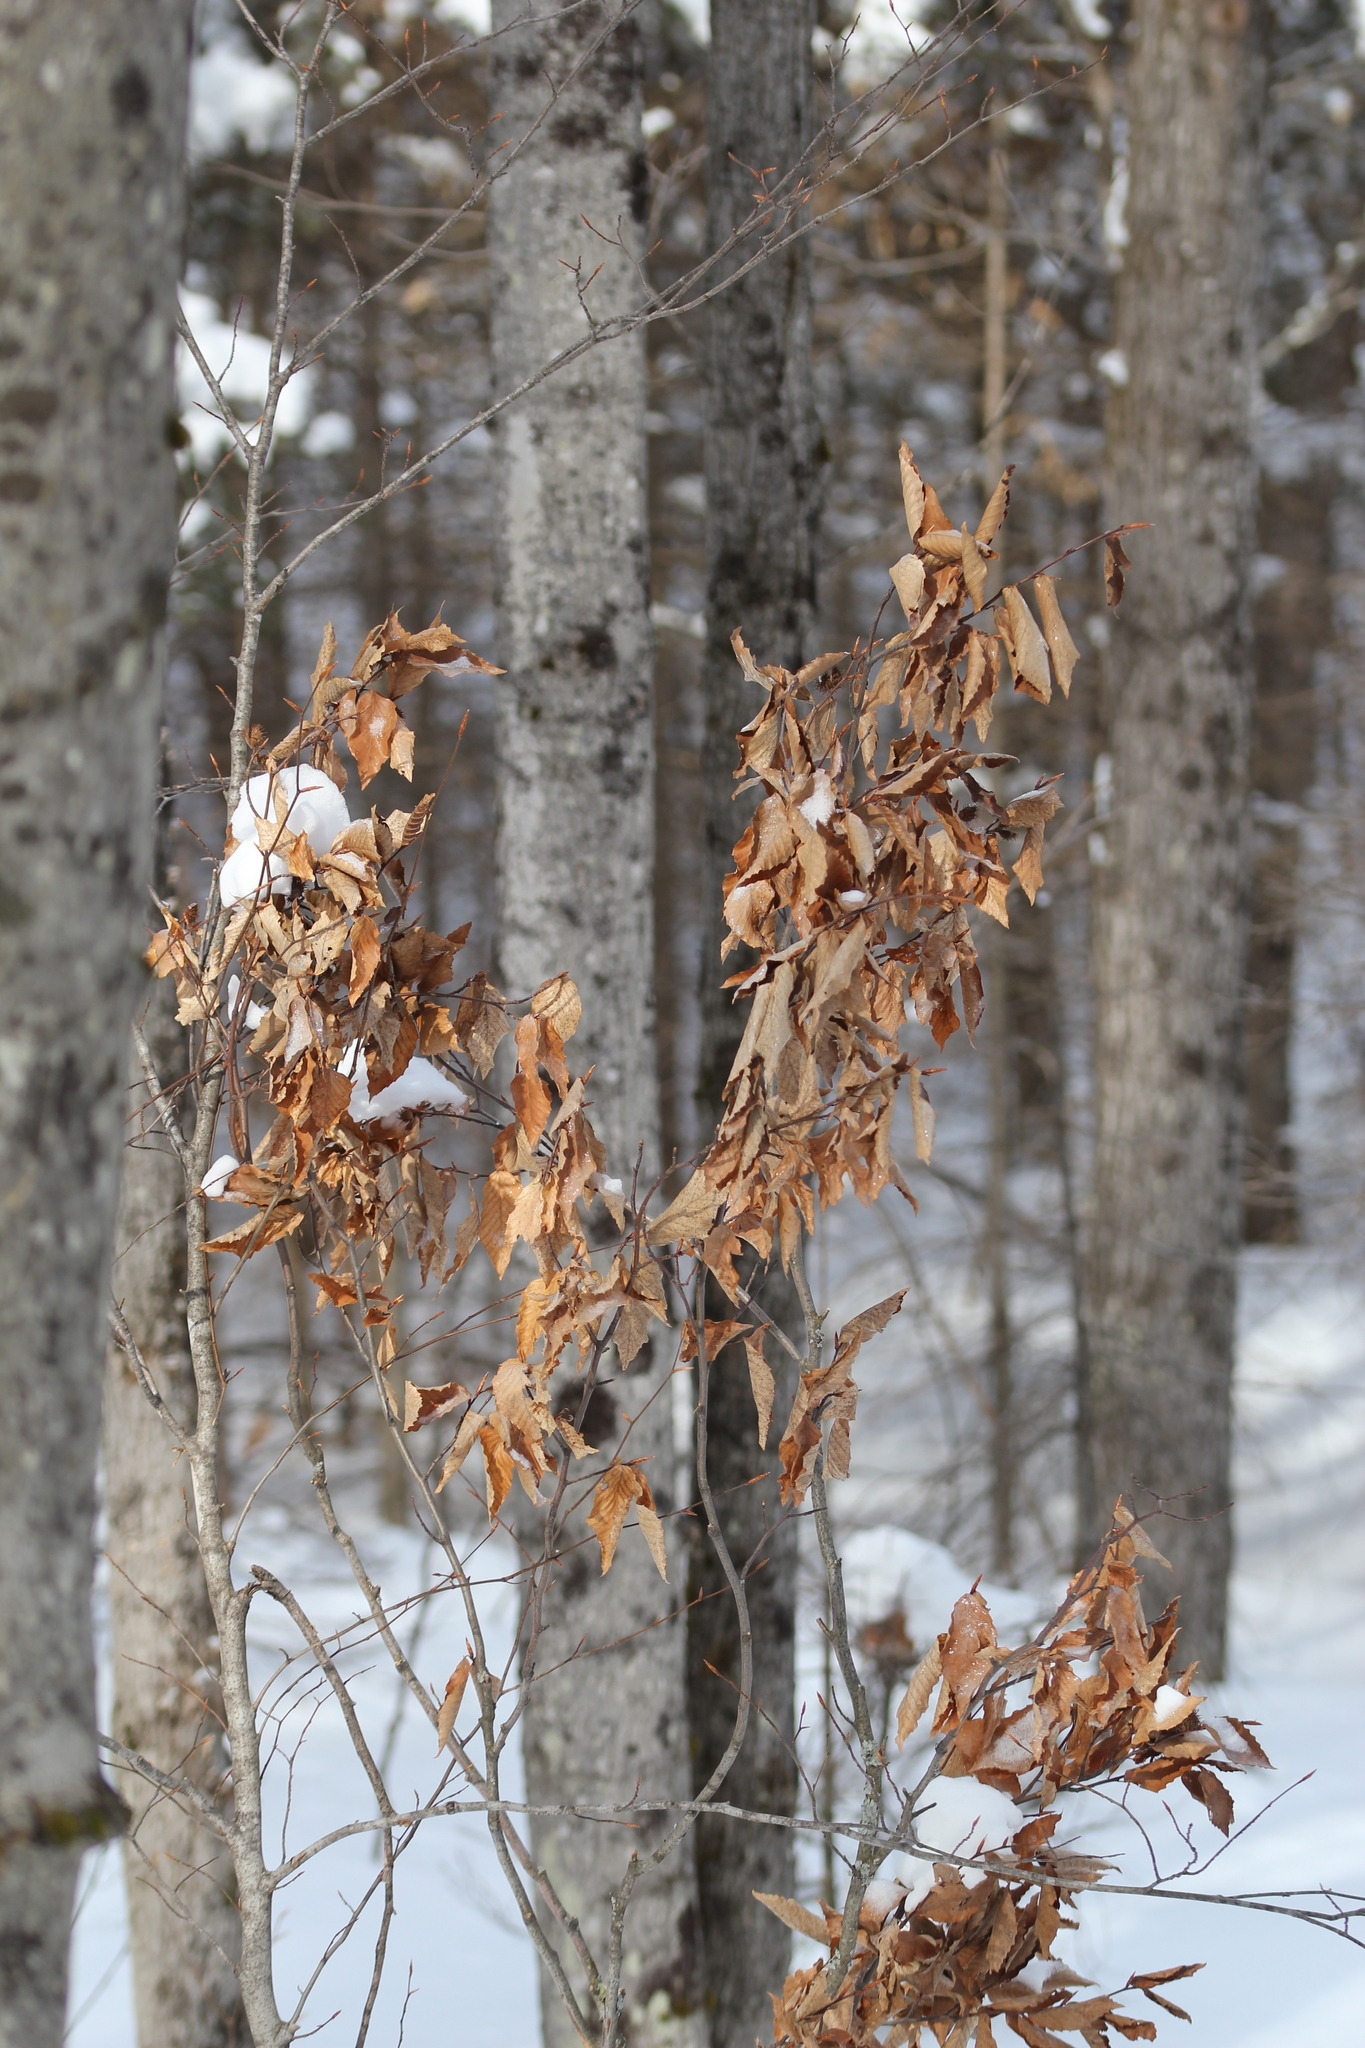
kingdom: Plantae
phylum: Tracheophyta
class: Magnoliopsida
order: Fagales
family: Fagaceae
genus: Fagus
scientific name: Fagus grandifolia
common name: American beech
